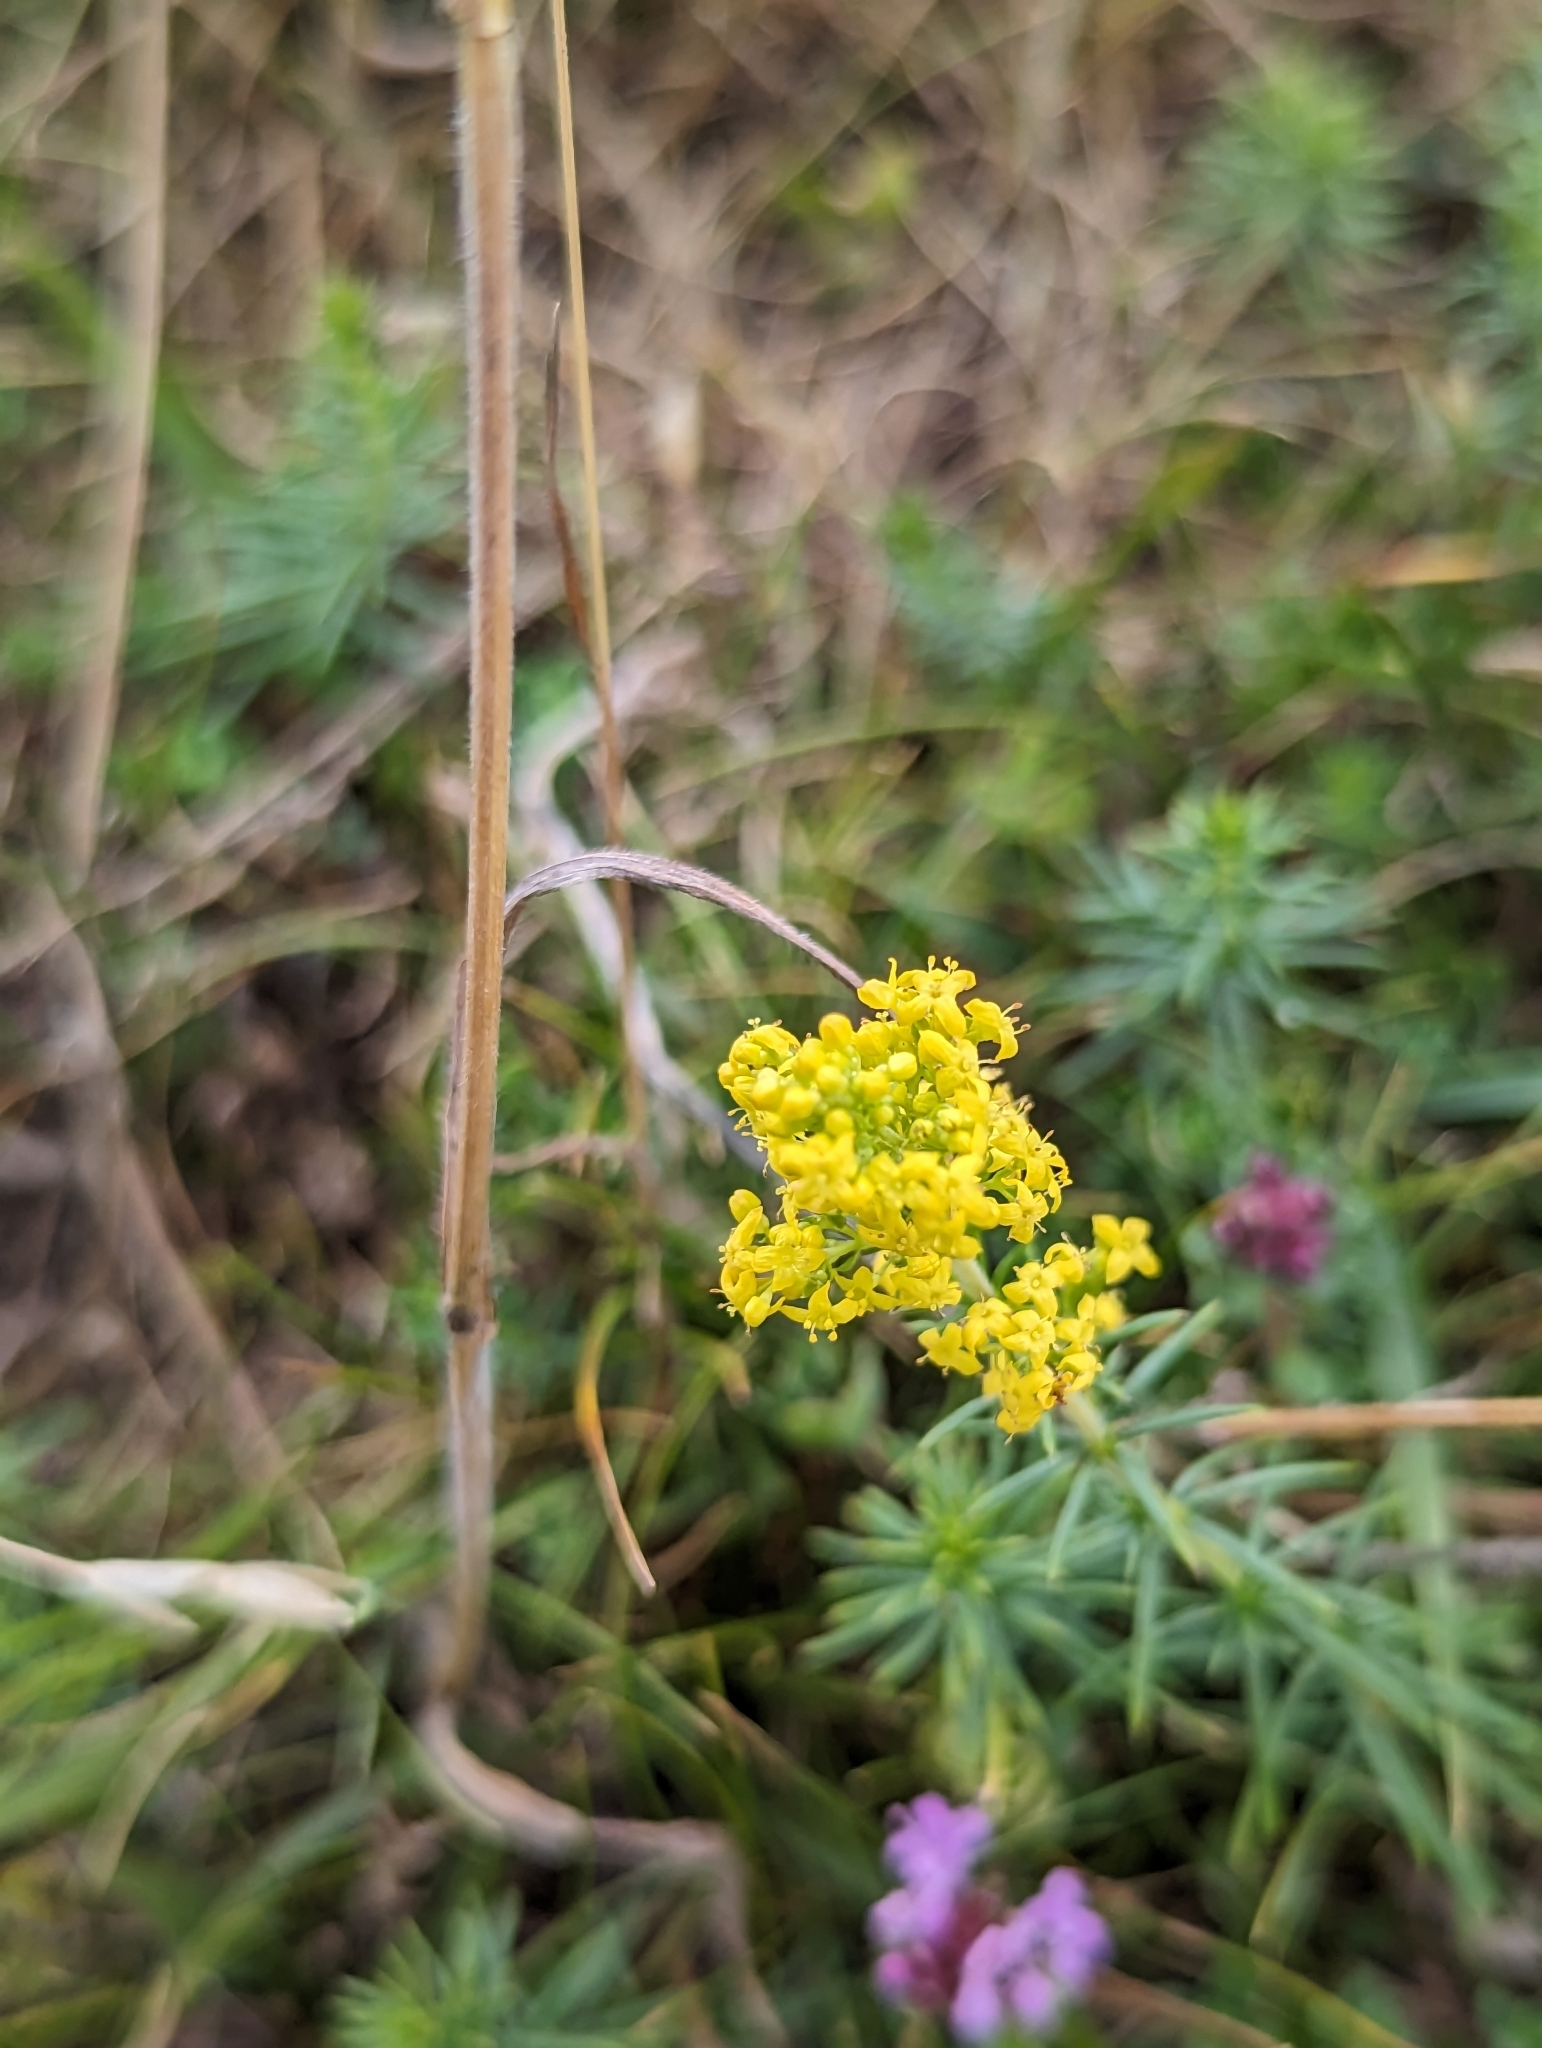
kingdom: Plantae
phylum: Tracheophyta
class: Magnoliopsida
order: Gentianales
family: Rubiaceae
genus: Galium
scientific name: Galium verum
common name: Lady's bedstraw
